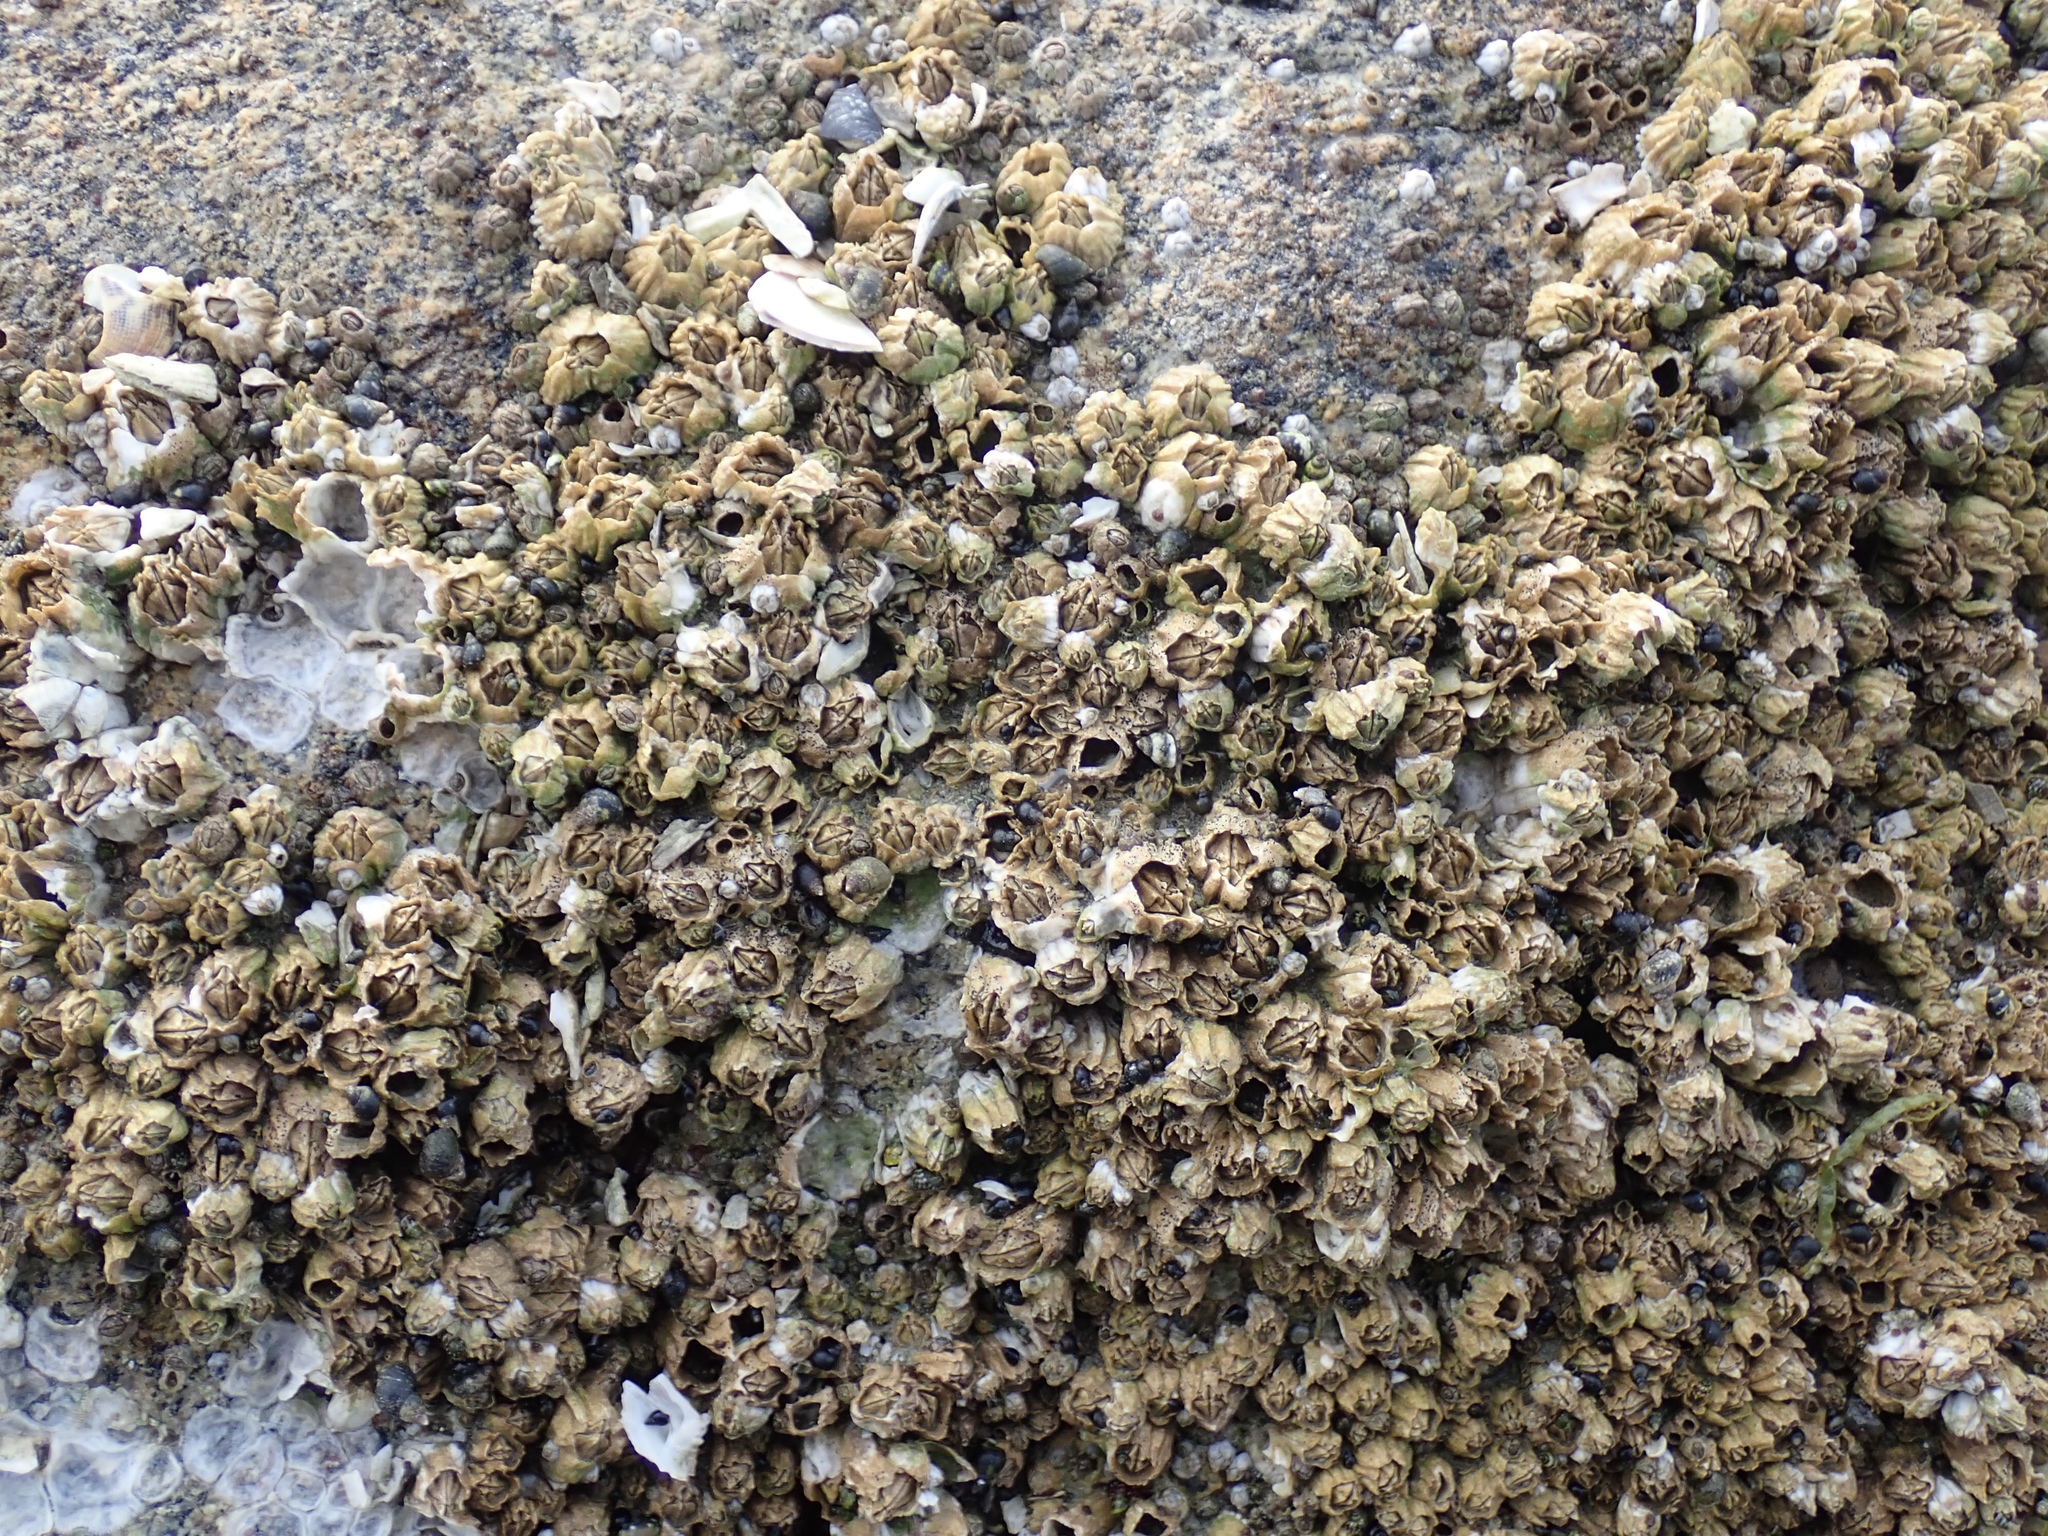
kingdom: Animalia
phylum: Arthropoda
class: Maxillopoda
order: Sessilia
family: Balanidae
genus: Balanus
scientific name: Balanus glandula
